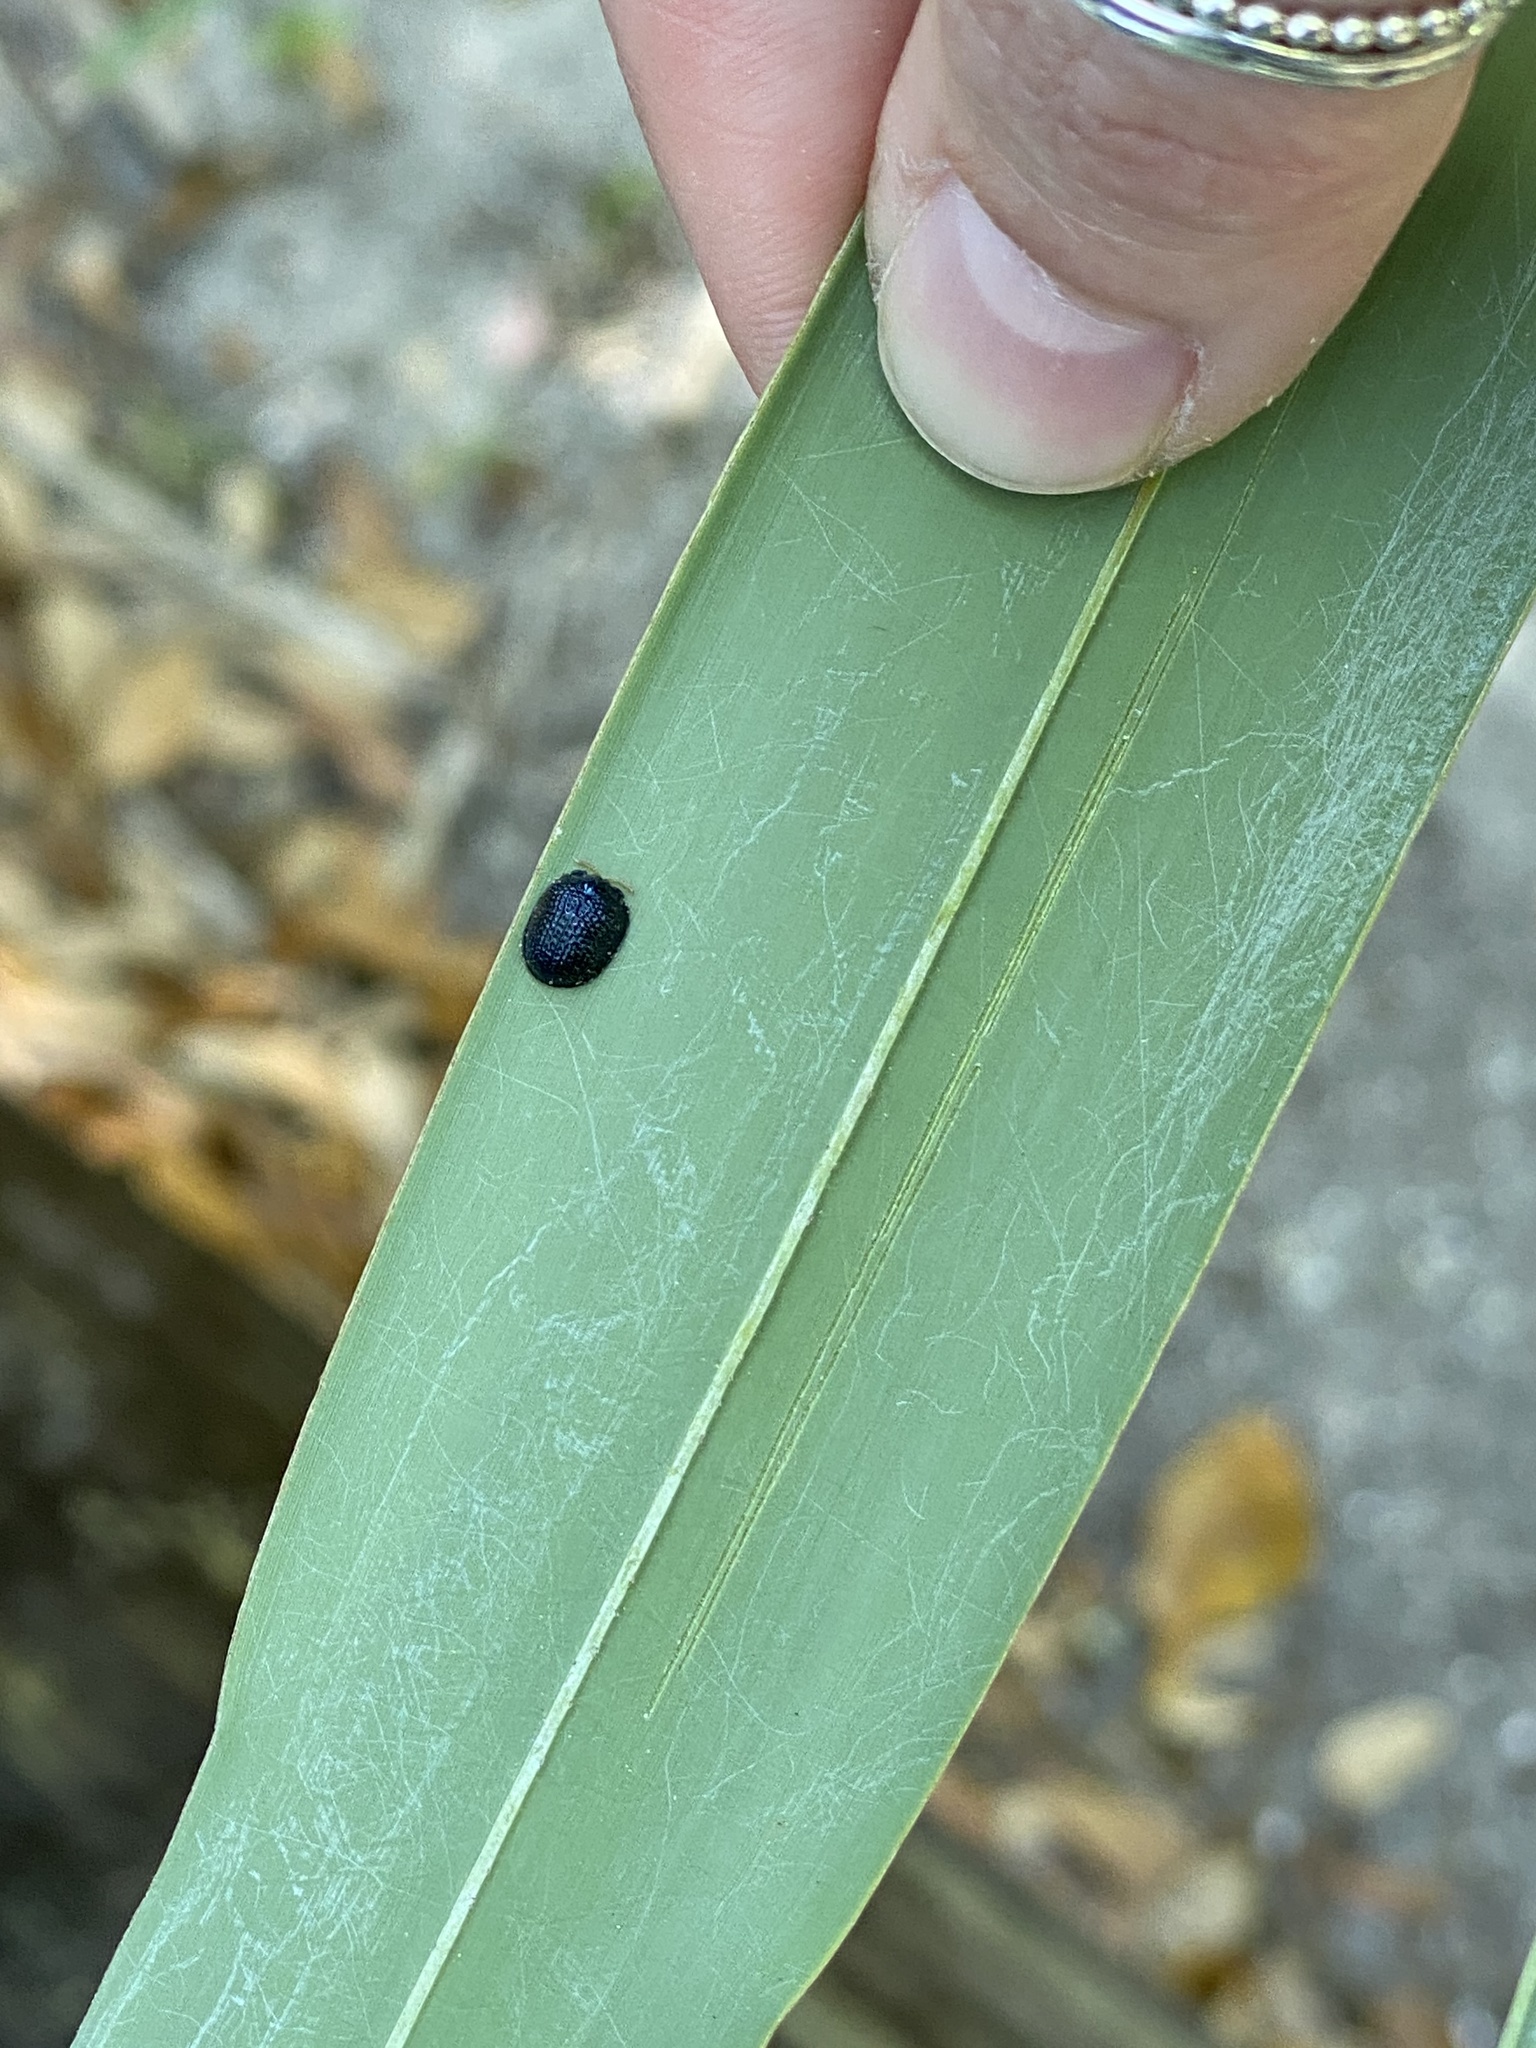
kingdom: Animalia
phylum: Arthropoda
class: Insecta
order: Coleoptera
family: Chrysomelidae
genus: Hemisphaerota
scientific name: Hemisphaerota cyanea
